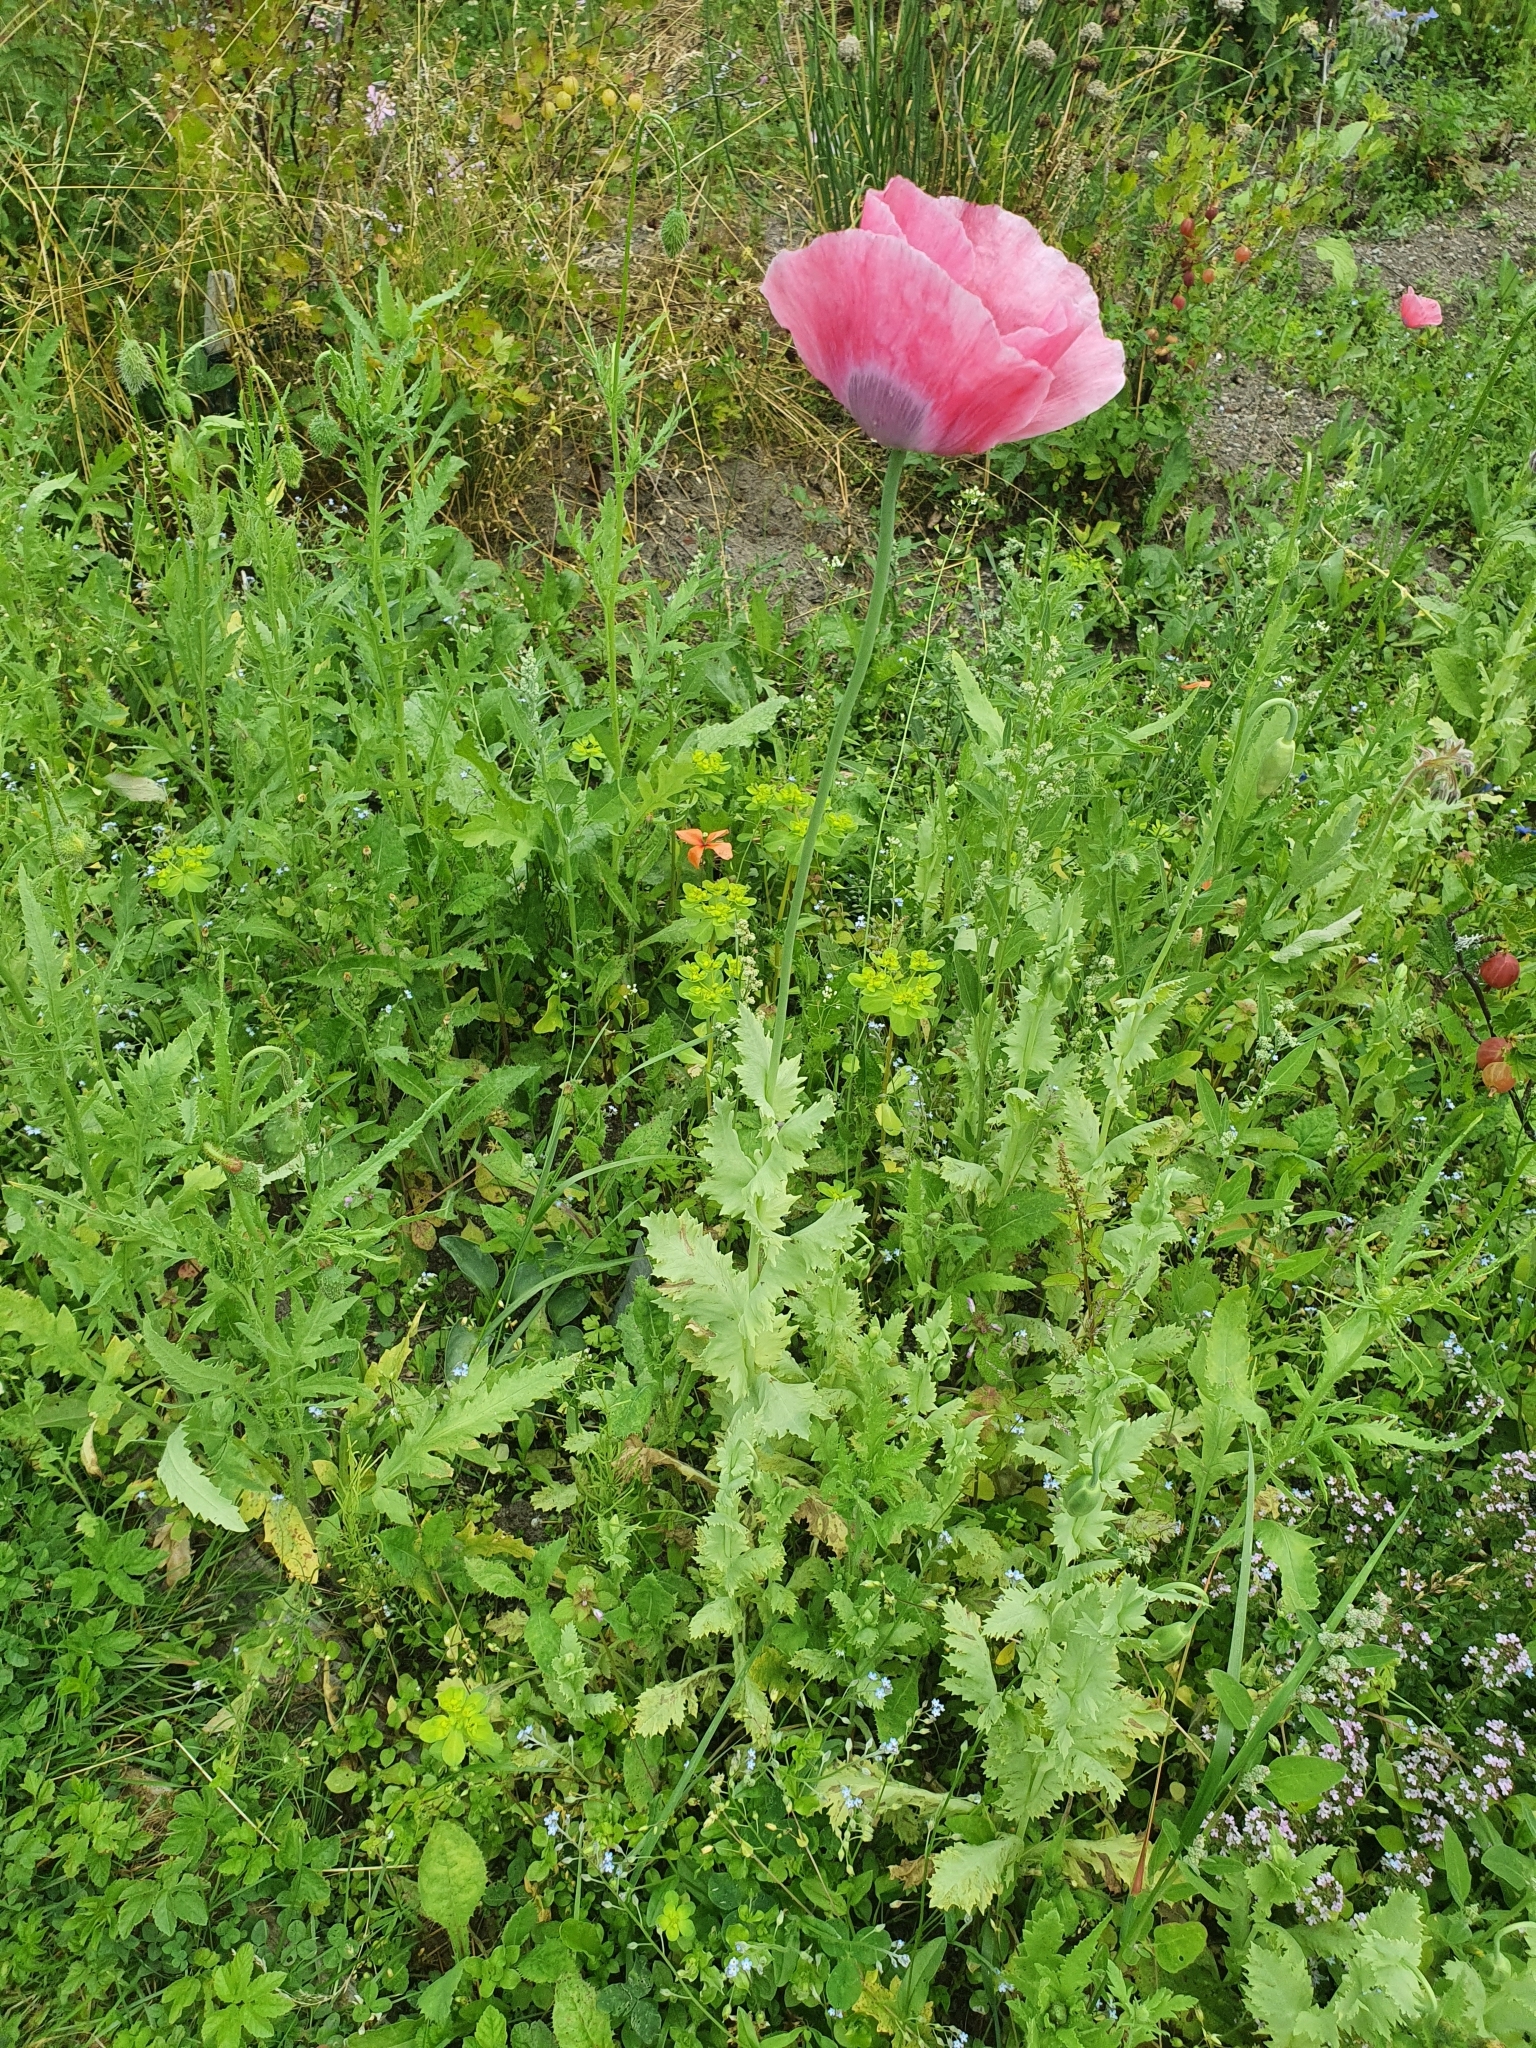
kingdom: Plantae
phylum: Tracheophyta
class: Magnoliopsida
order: Ranunculales
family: Papaveraceae
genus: Papaver
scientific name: Papaver somniferum
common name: Opium poppy
